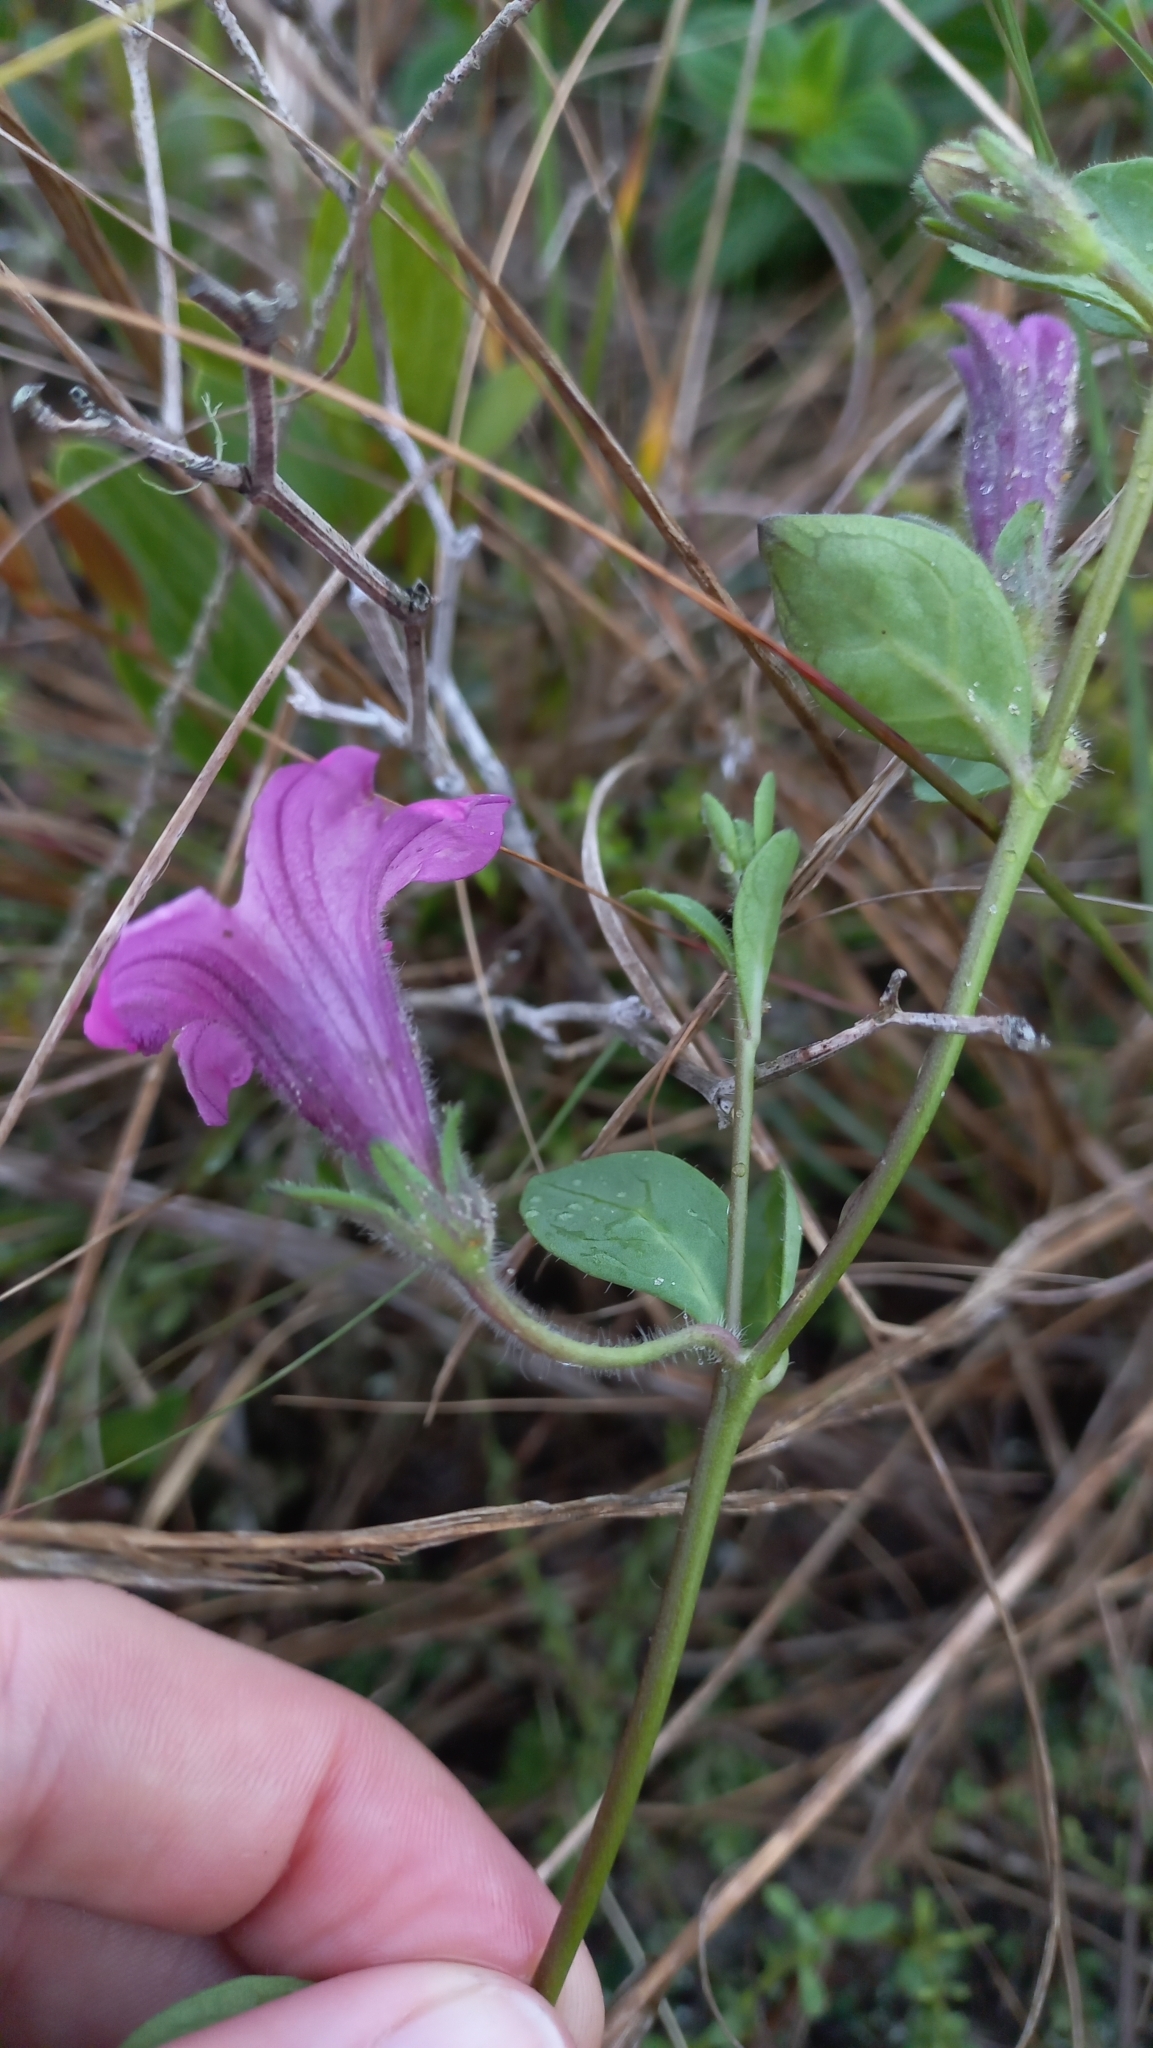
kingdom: Plantae
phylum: Tracheophyta
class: Magnoliopsida
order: Solanales
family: Solanaceae
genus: Petunia
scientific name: Petunia integrifolia
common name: Violet-flower petunia
